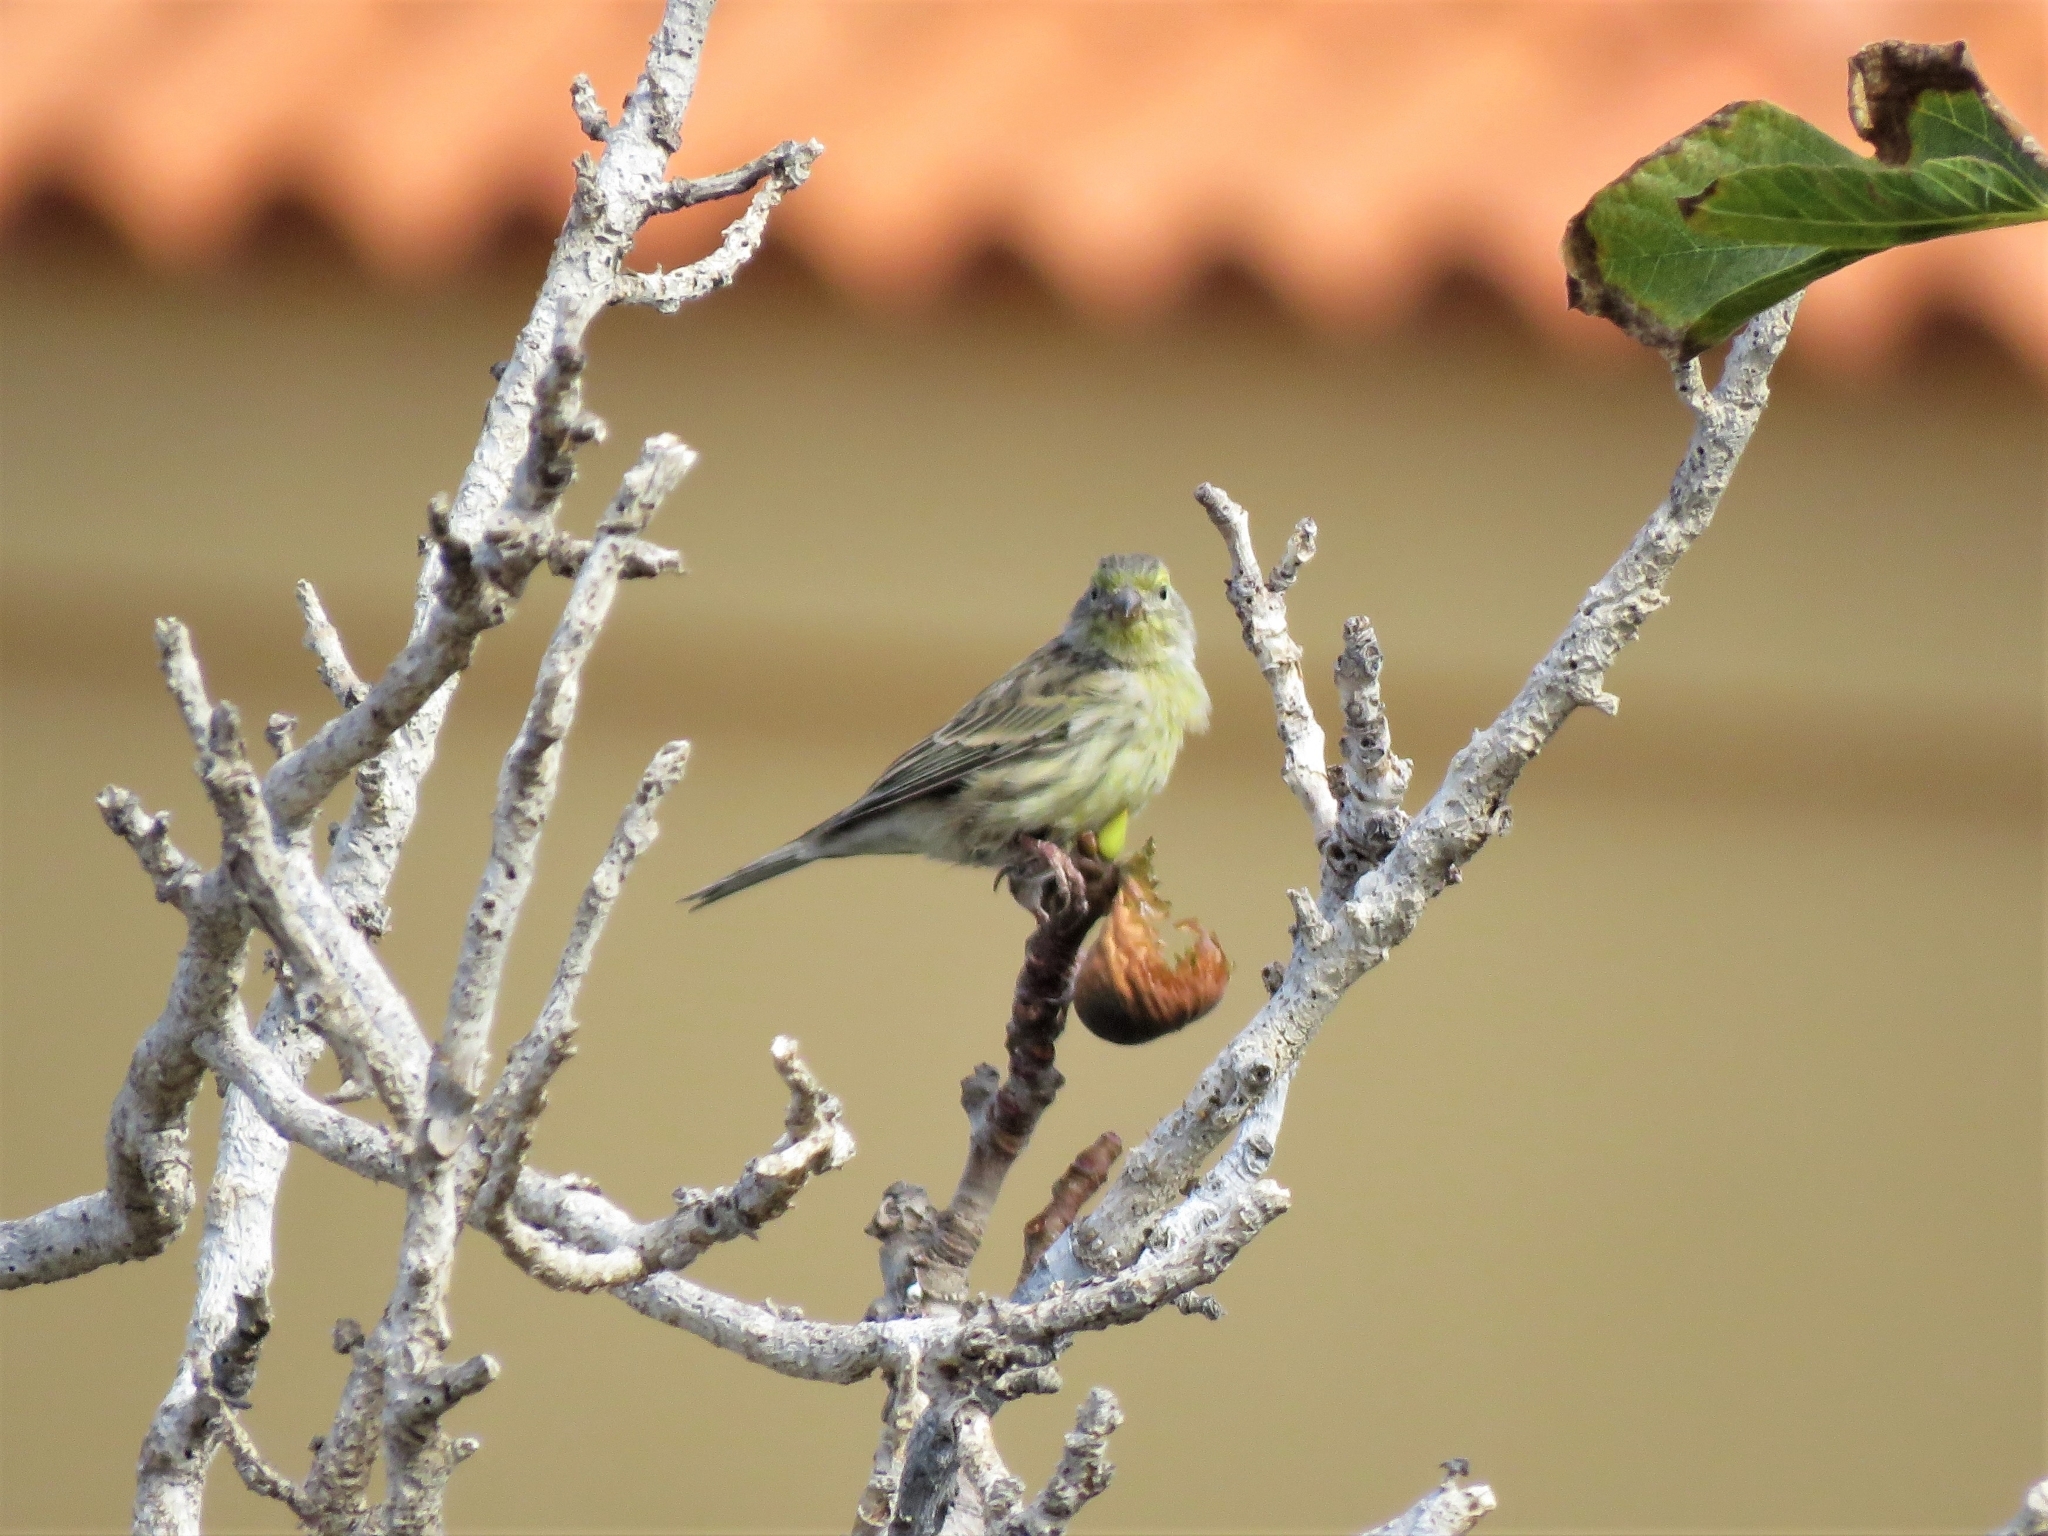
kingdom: Animalia
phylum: Chordata
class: Aves
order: Passeriformes
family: Fringillidae
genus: Serinus
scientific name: Serinus canaria
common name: Atlantic canary
